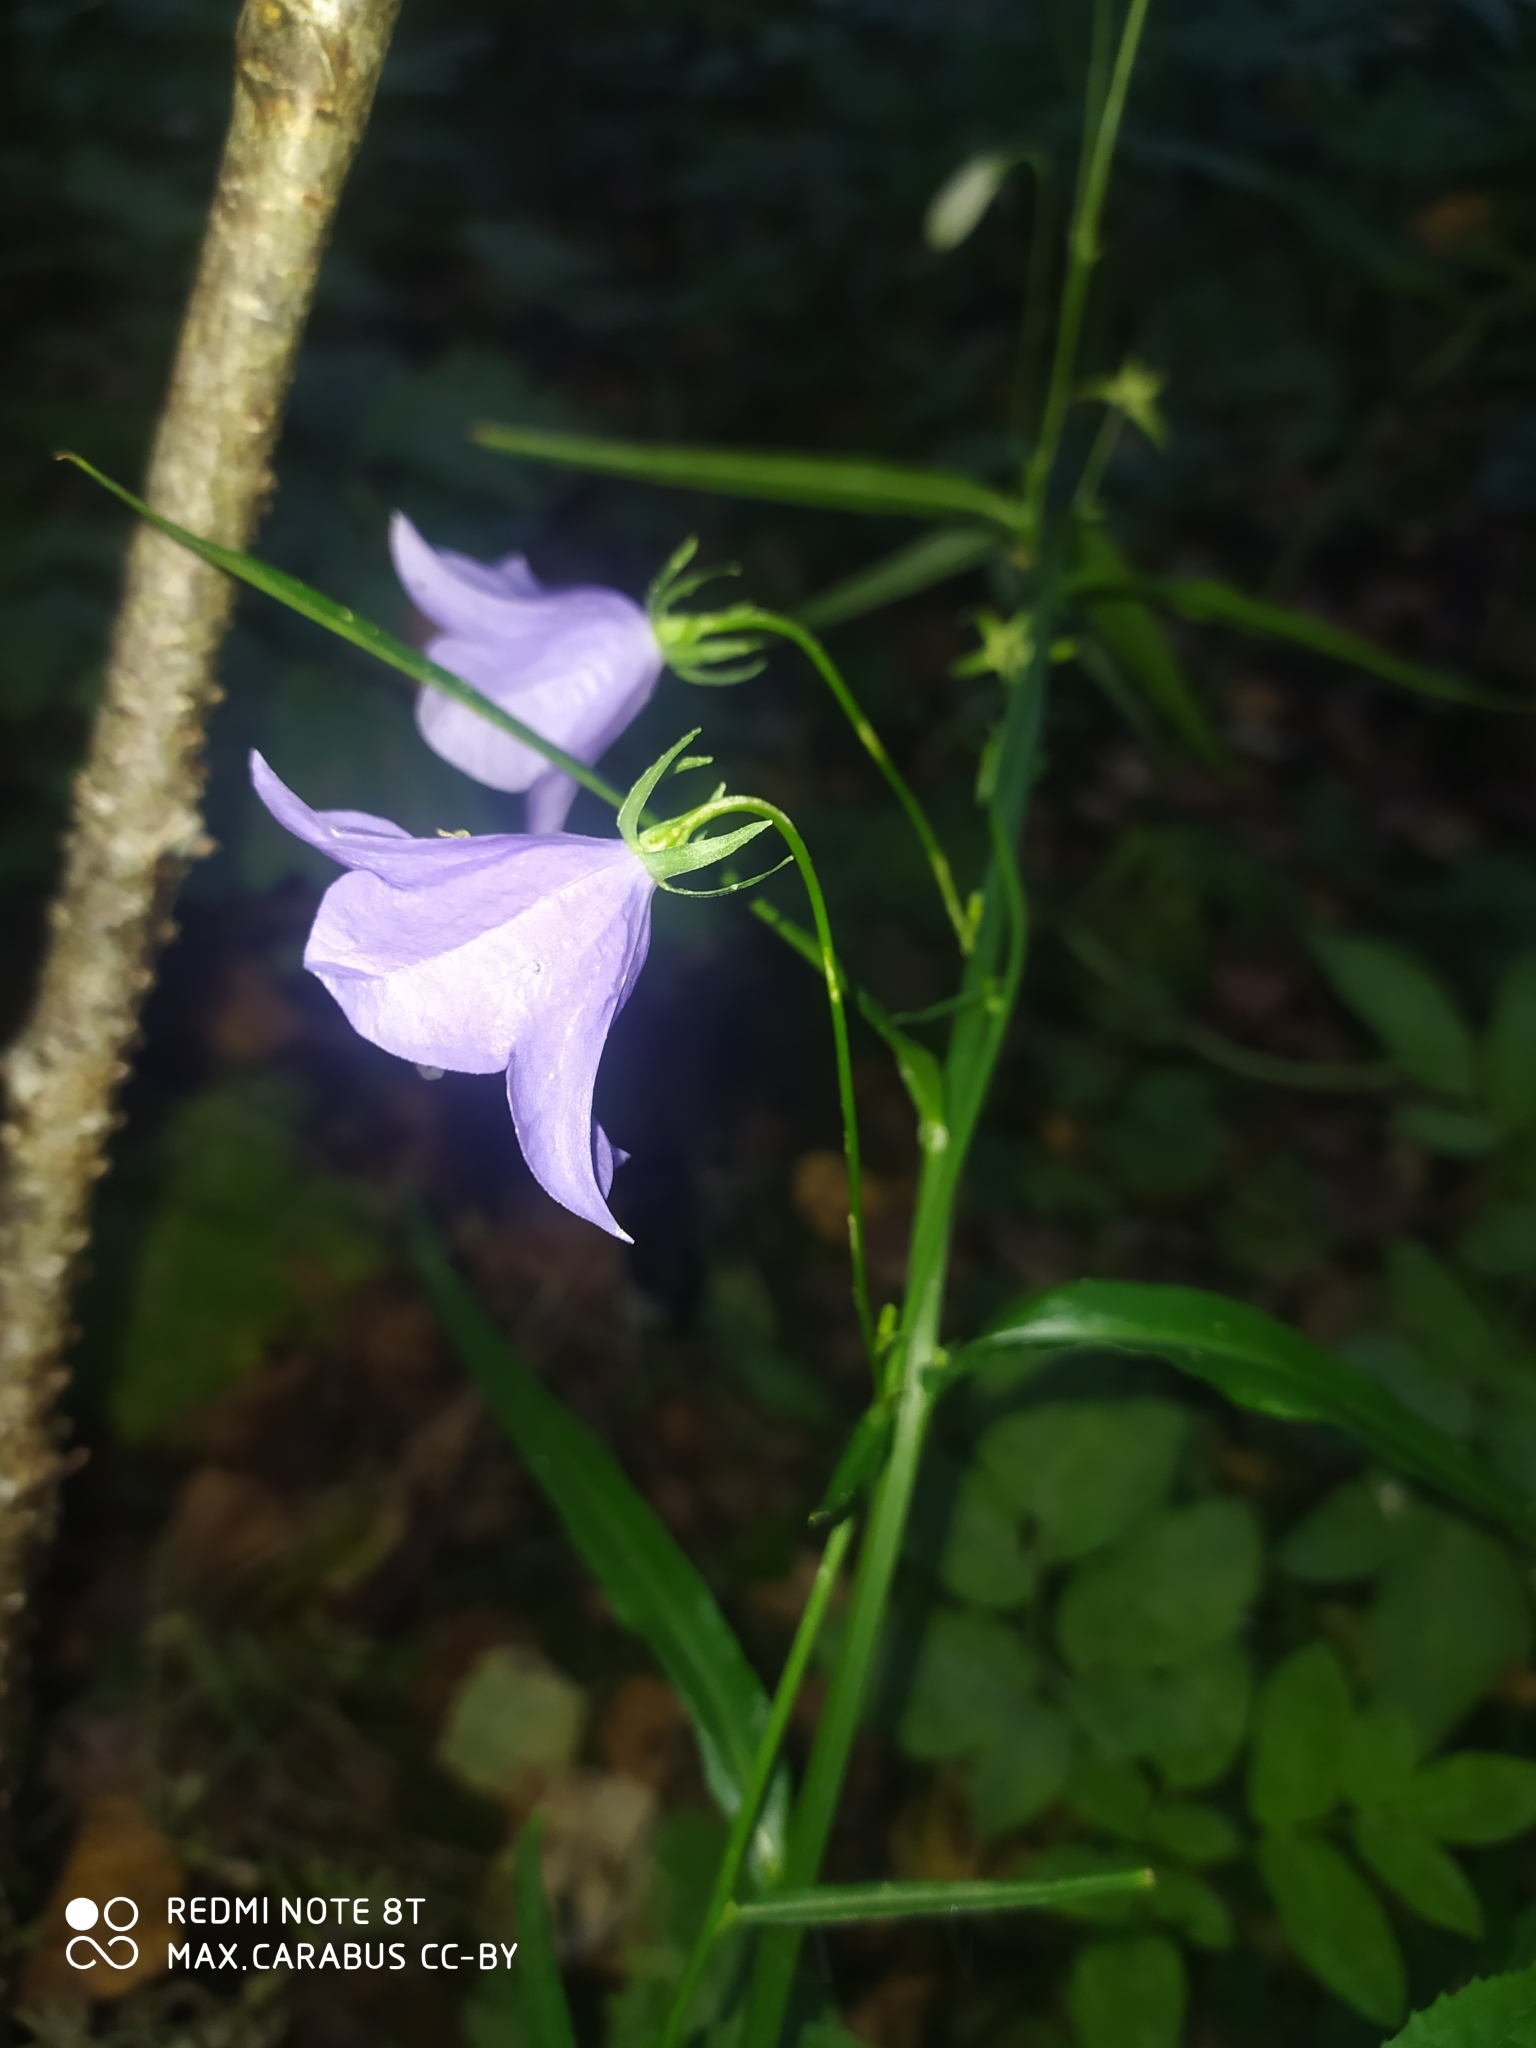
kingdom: Plantae
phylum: Tracheophyta
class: Magnoliopsida
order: Asterales
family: Campanulaceae
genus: Campanula
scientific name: Campanula persicifolia
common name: Peach-leaved bellflower
